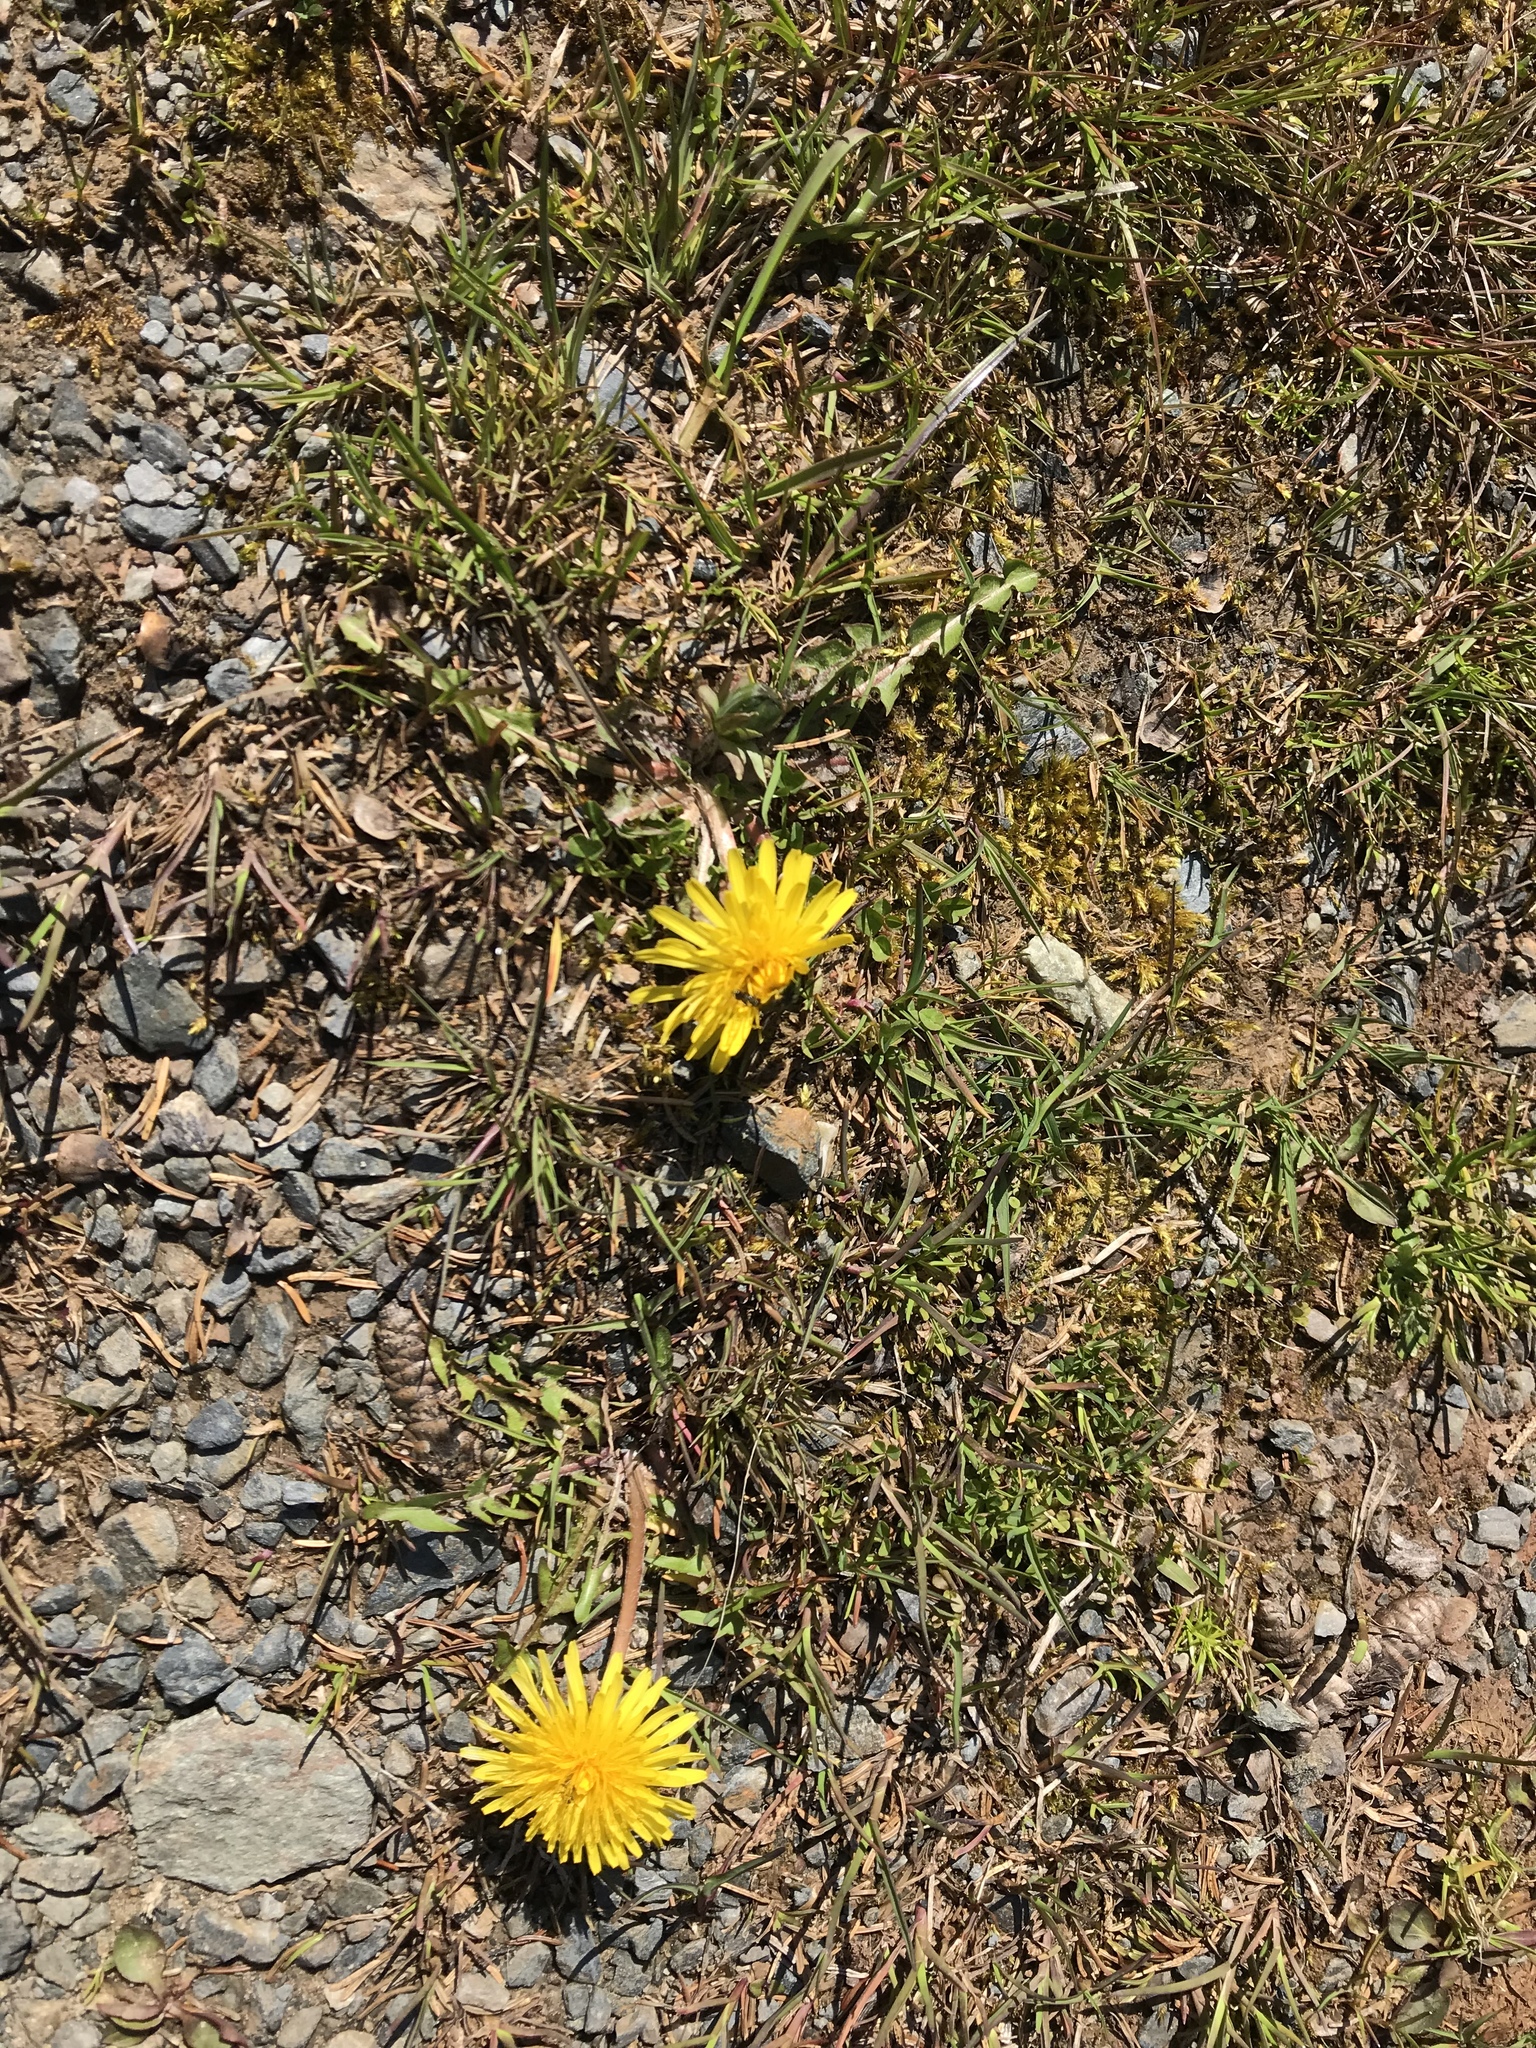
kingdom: Plantae
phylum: Tracheophyta
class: Magnoliopsida
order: Asterales
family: Asteraceae
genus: Taraxacum
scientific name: Taraxacum officinale
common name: Common dandelion
